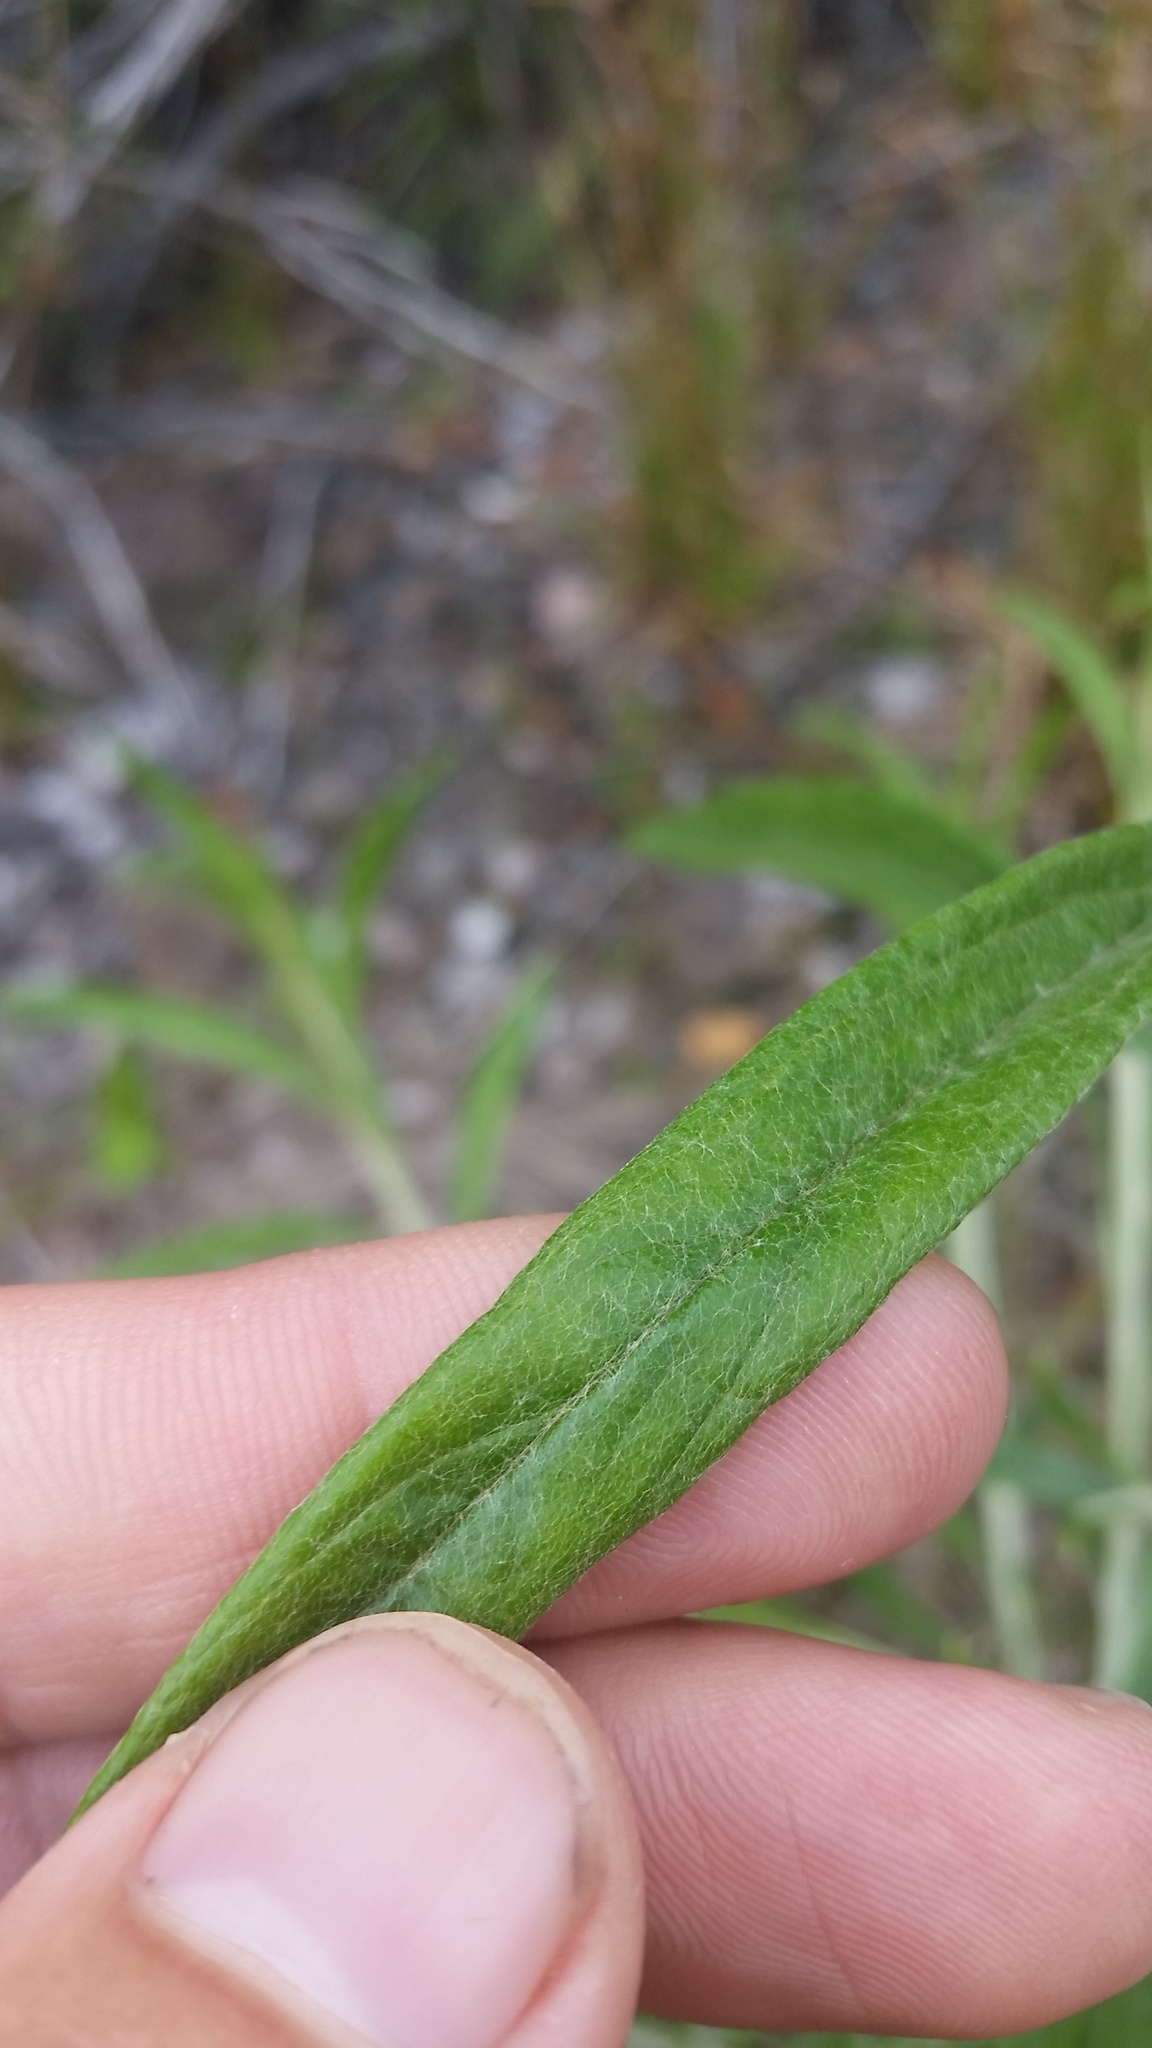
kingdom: Plantae
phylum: Tracheophyta
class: Magnoliopsida
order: Asterales
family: Asteraceae
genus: Pseudognaphalium
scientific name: Pseudognaphalium attenuatum
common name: Tapered cudweed
